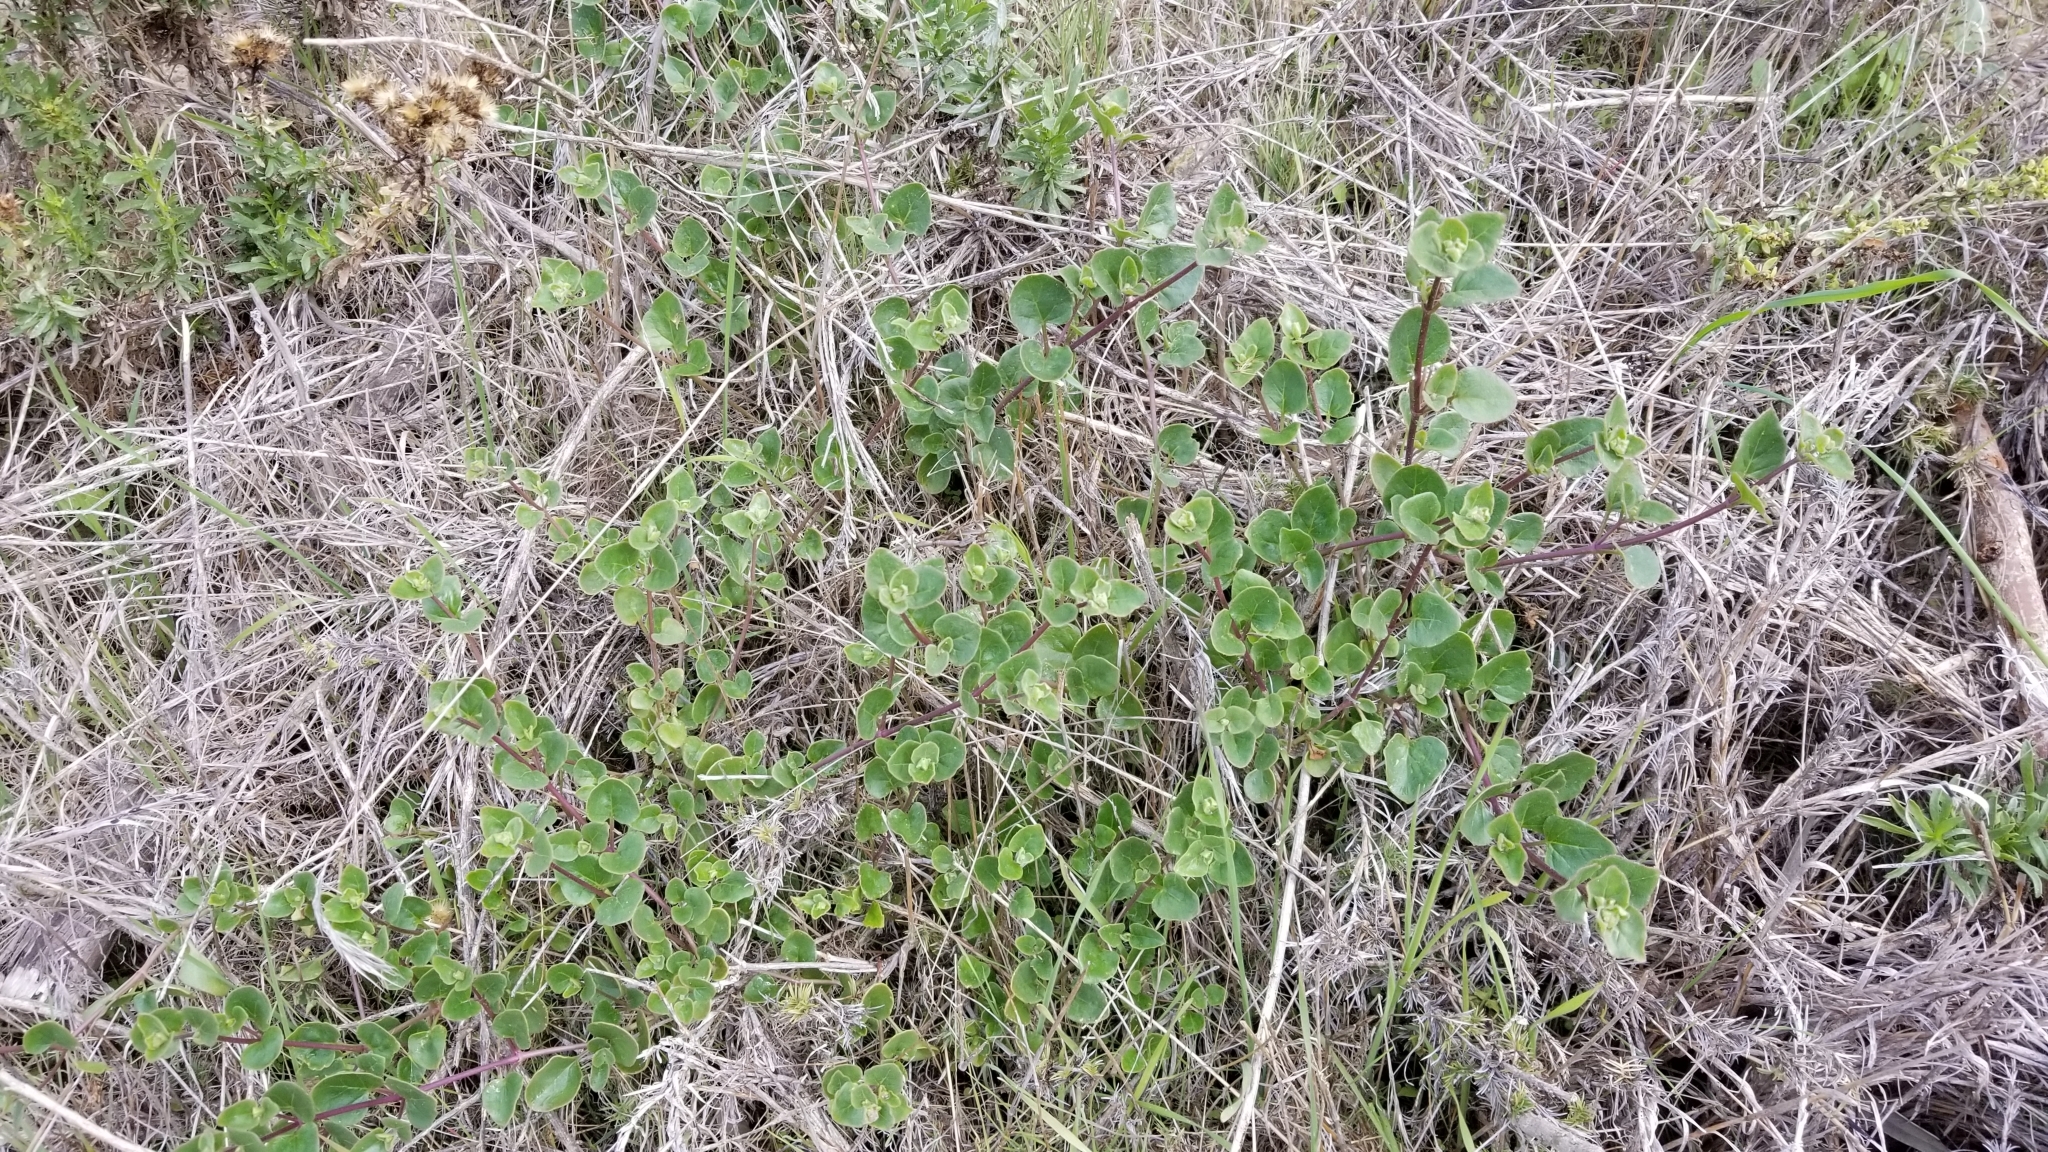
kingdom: Plantae
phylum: Tracheophyta
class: Magnoliopsida
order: Caryophyllales
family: Nyctaginaceae
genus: Mirabilis
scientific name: Mirabilis laevis
